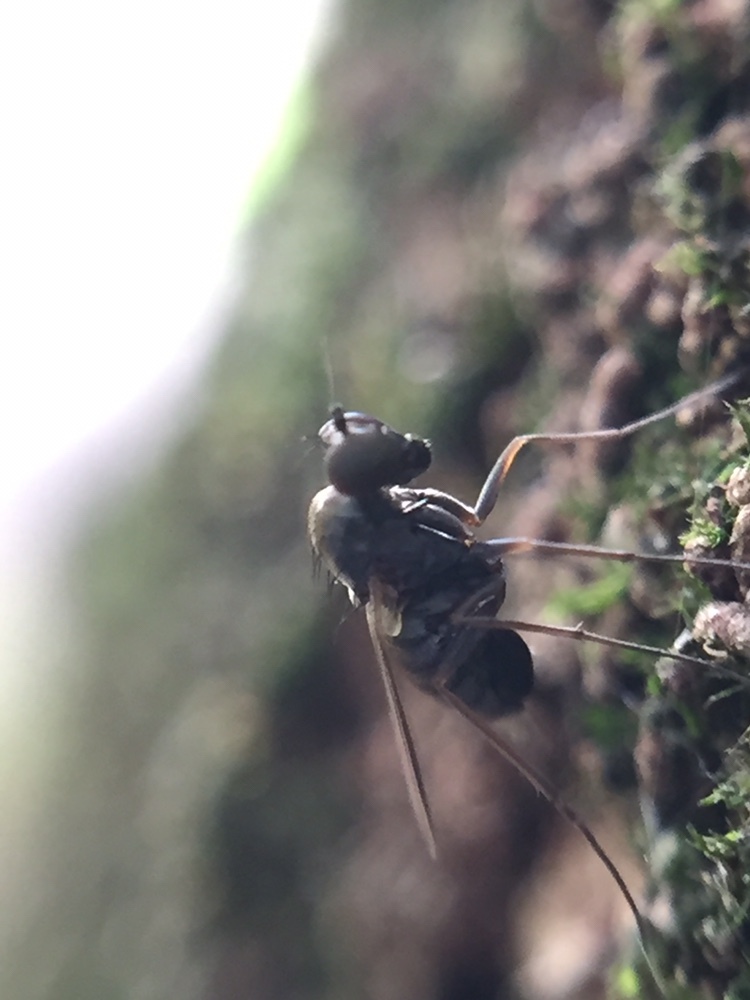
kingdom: Animalia
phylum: Arthropoda
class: Insecta
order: Diptera
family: Dolichopodidae
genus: Medetera
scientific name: Medetera grisescens
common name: Fly
